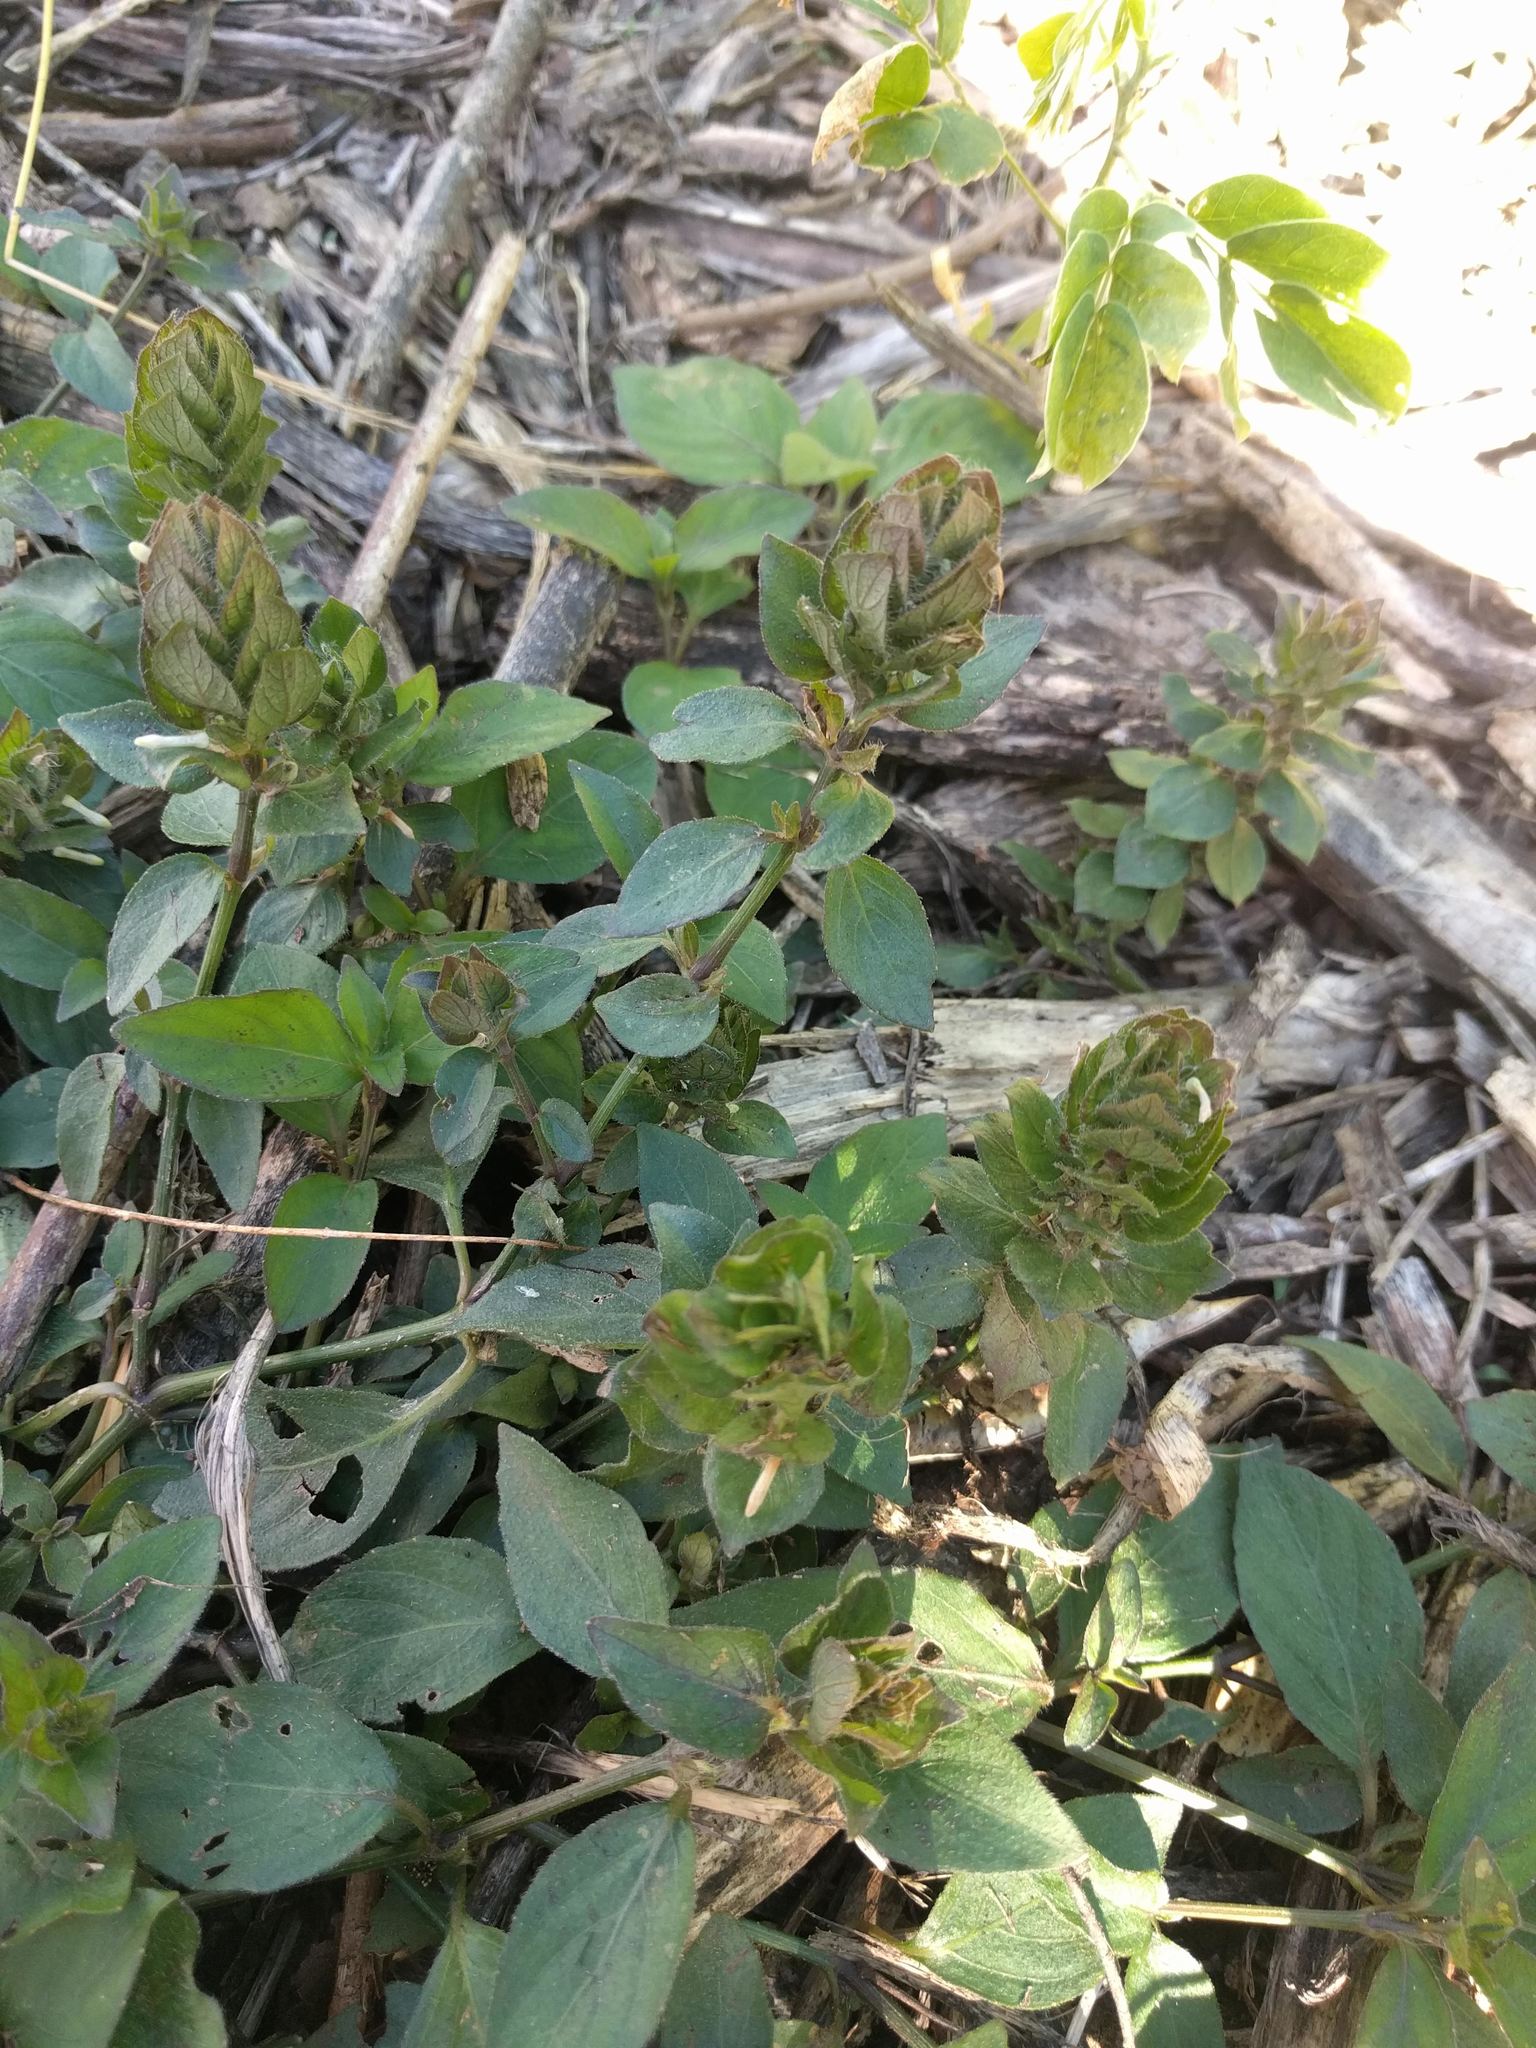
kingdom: Plantae
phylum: Tracheophyta
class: Magnoliopsida
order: Lamiales
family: Acanthaceae
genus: Ruellia
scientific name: Ruellia blechum
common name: Browne's blechum
